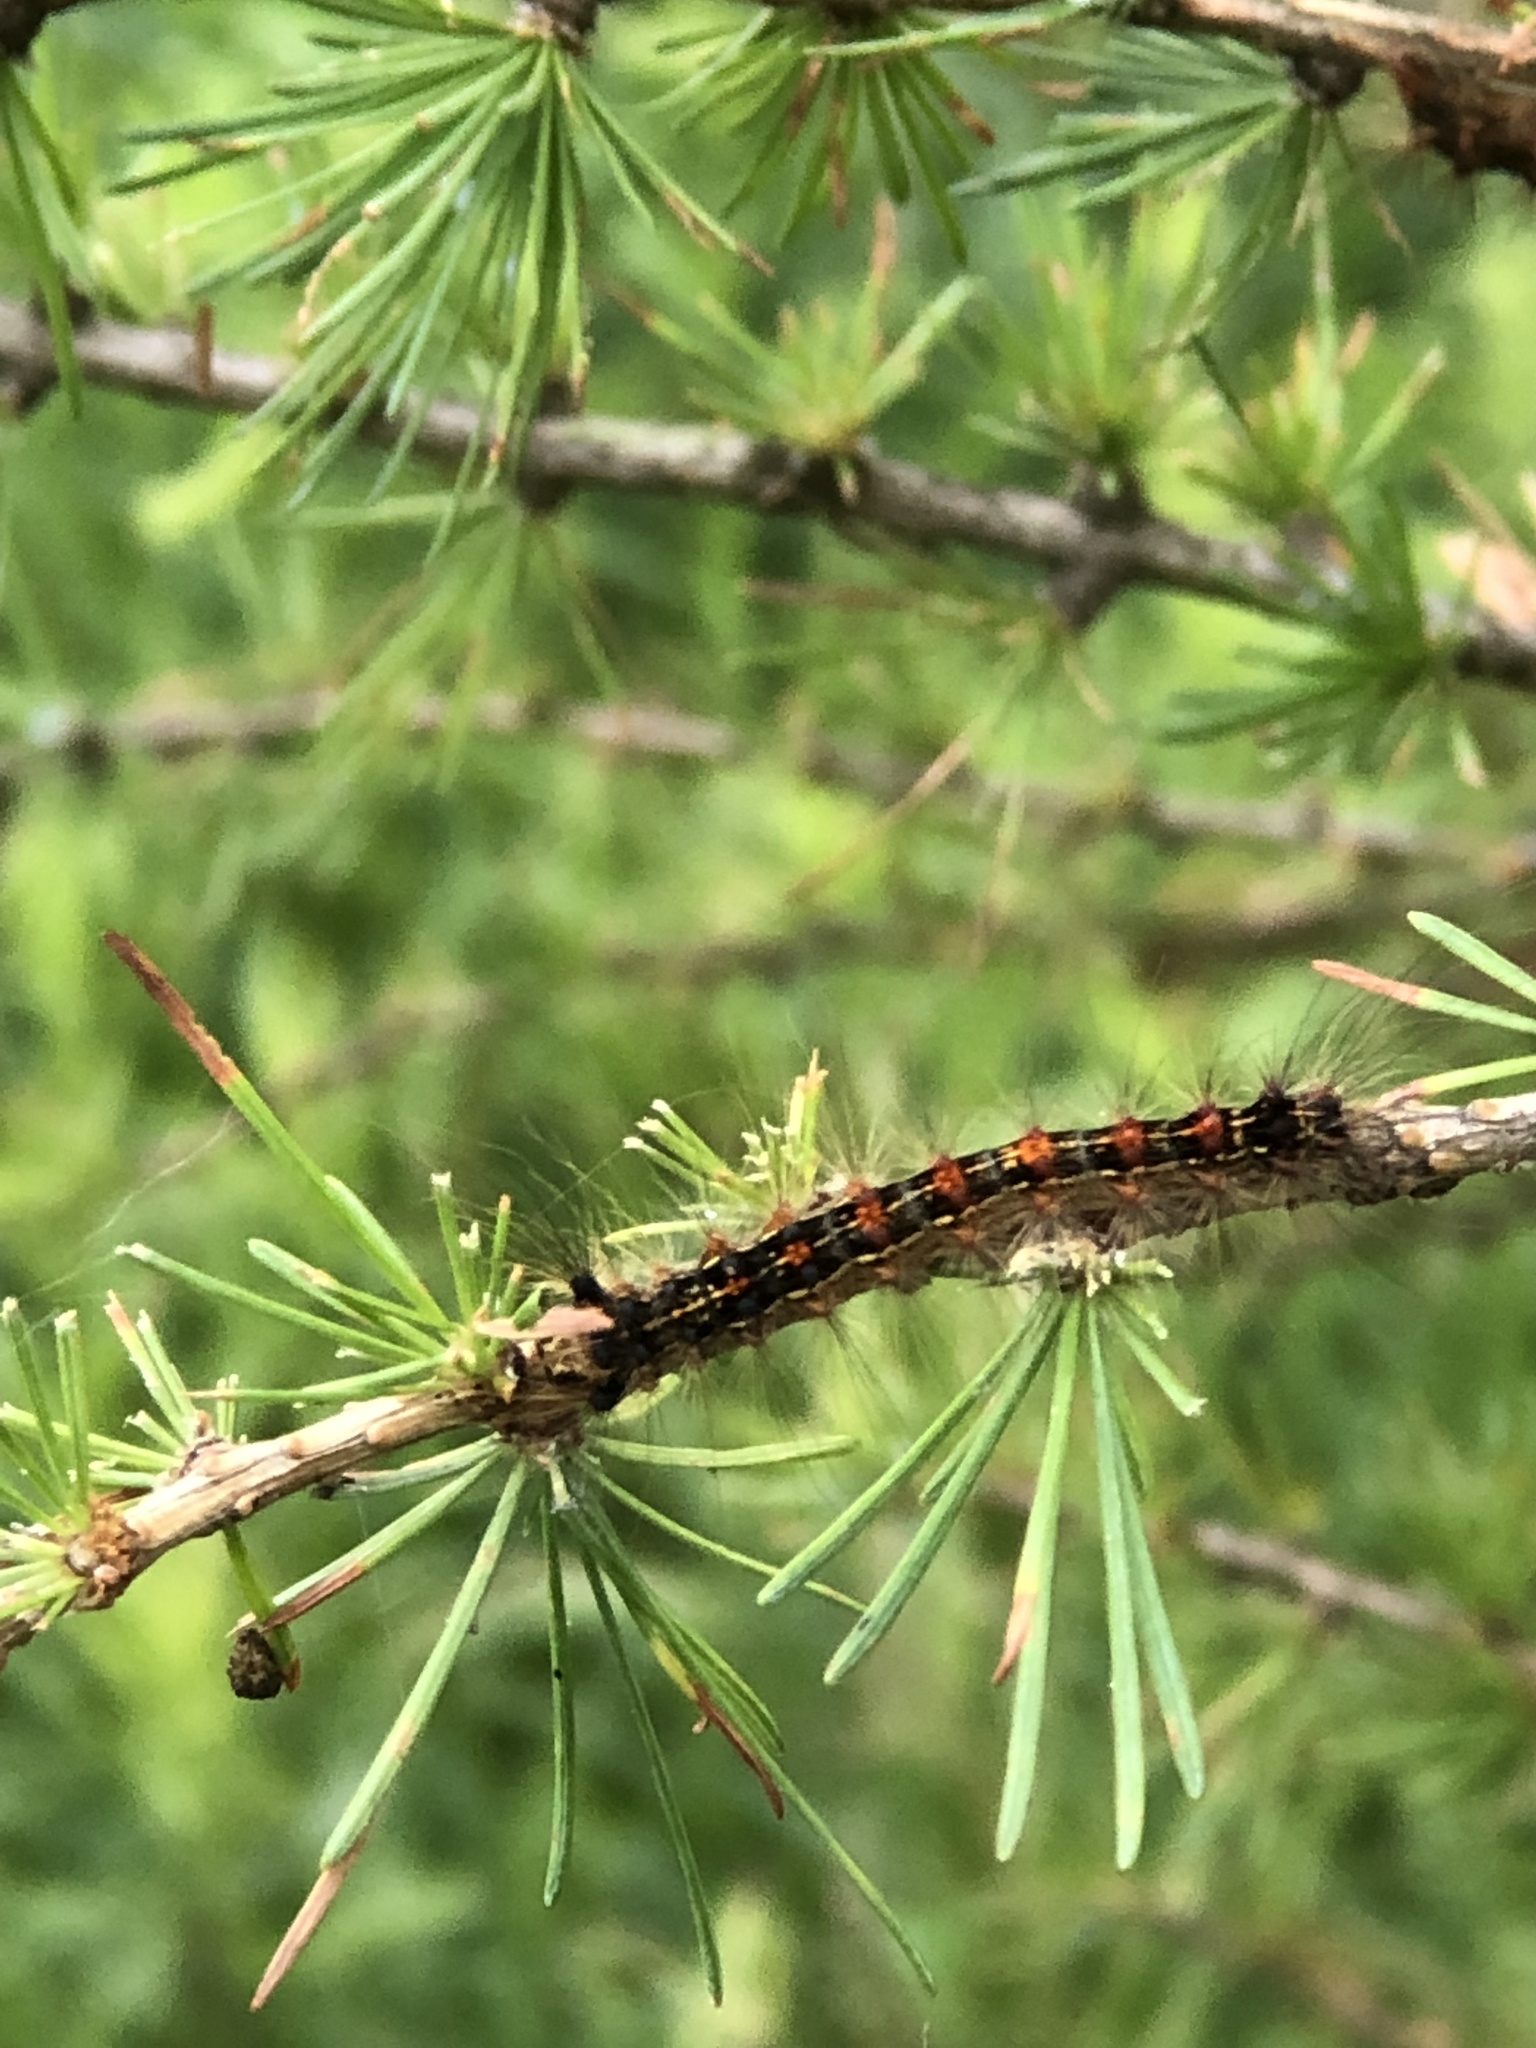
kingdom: Animalia
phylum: Arthropoda
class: Insecta
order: Lepidoptera
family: Erebidae
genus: Lymantria
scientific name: Lymantria dispar
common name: Gypsy moth
